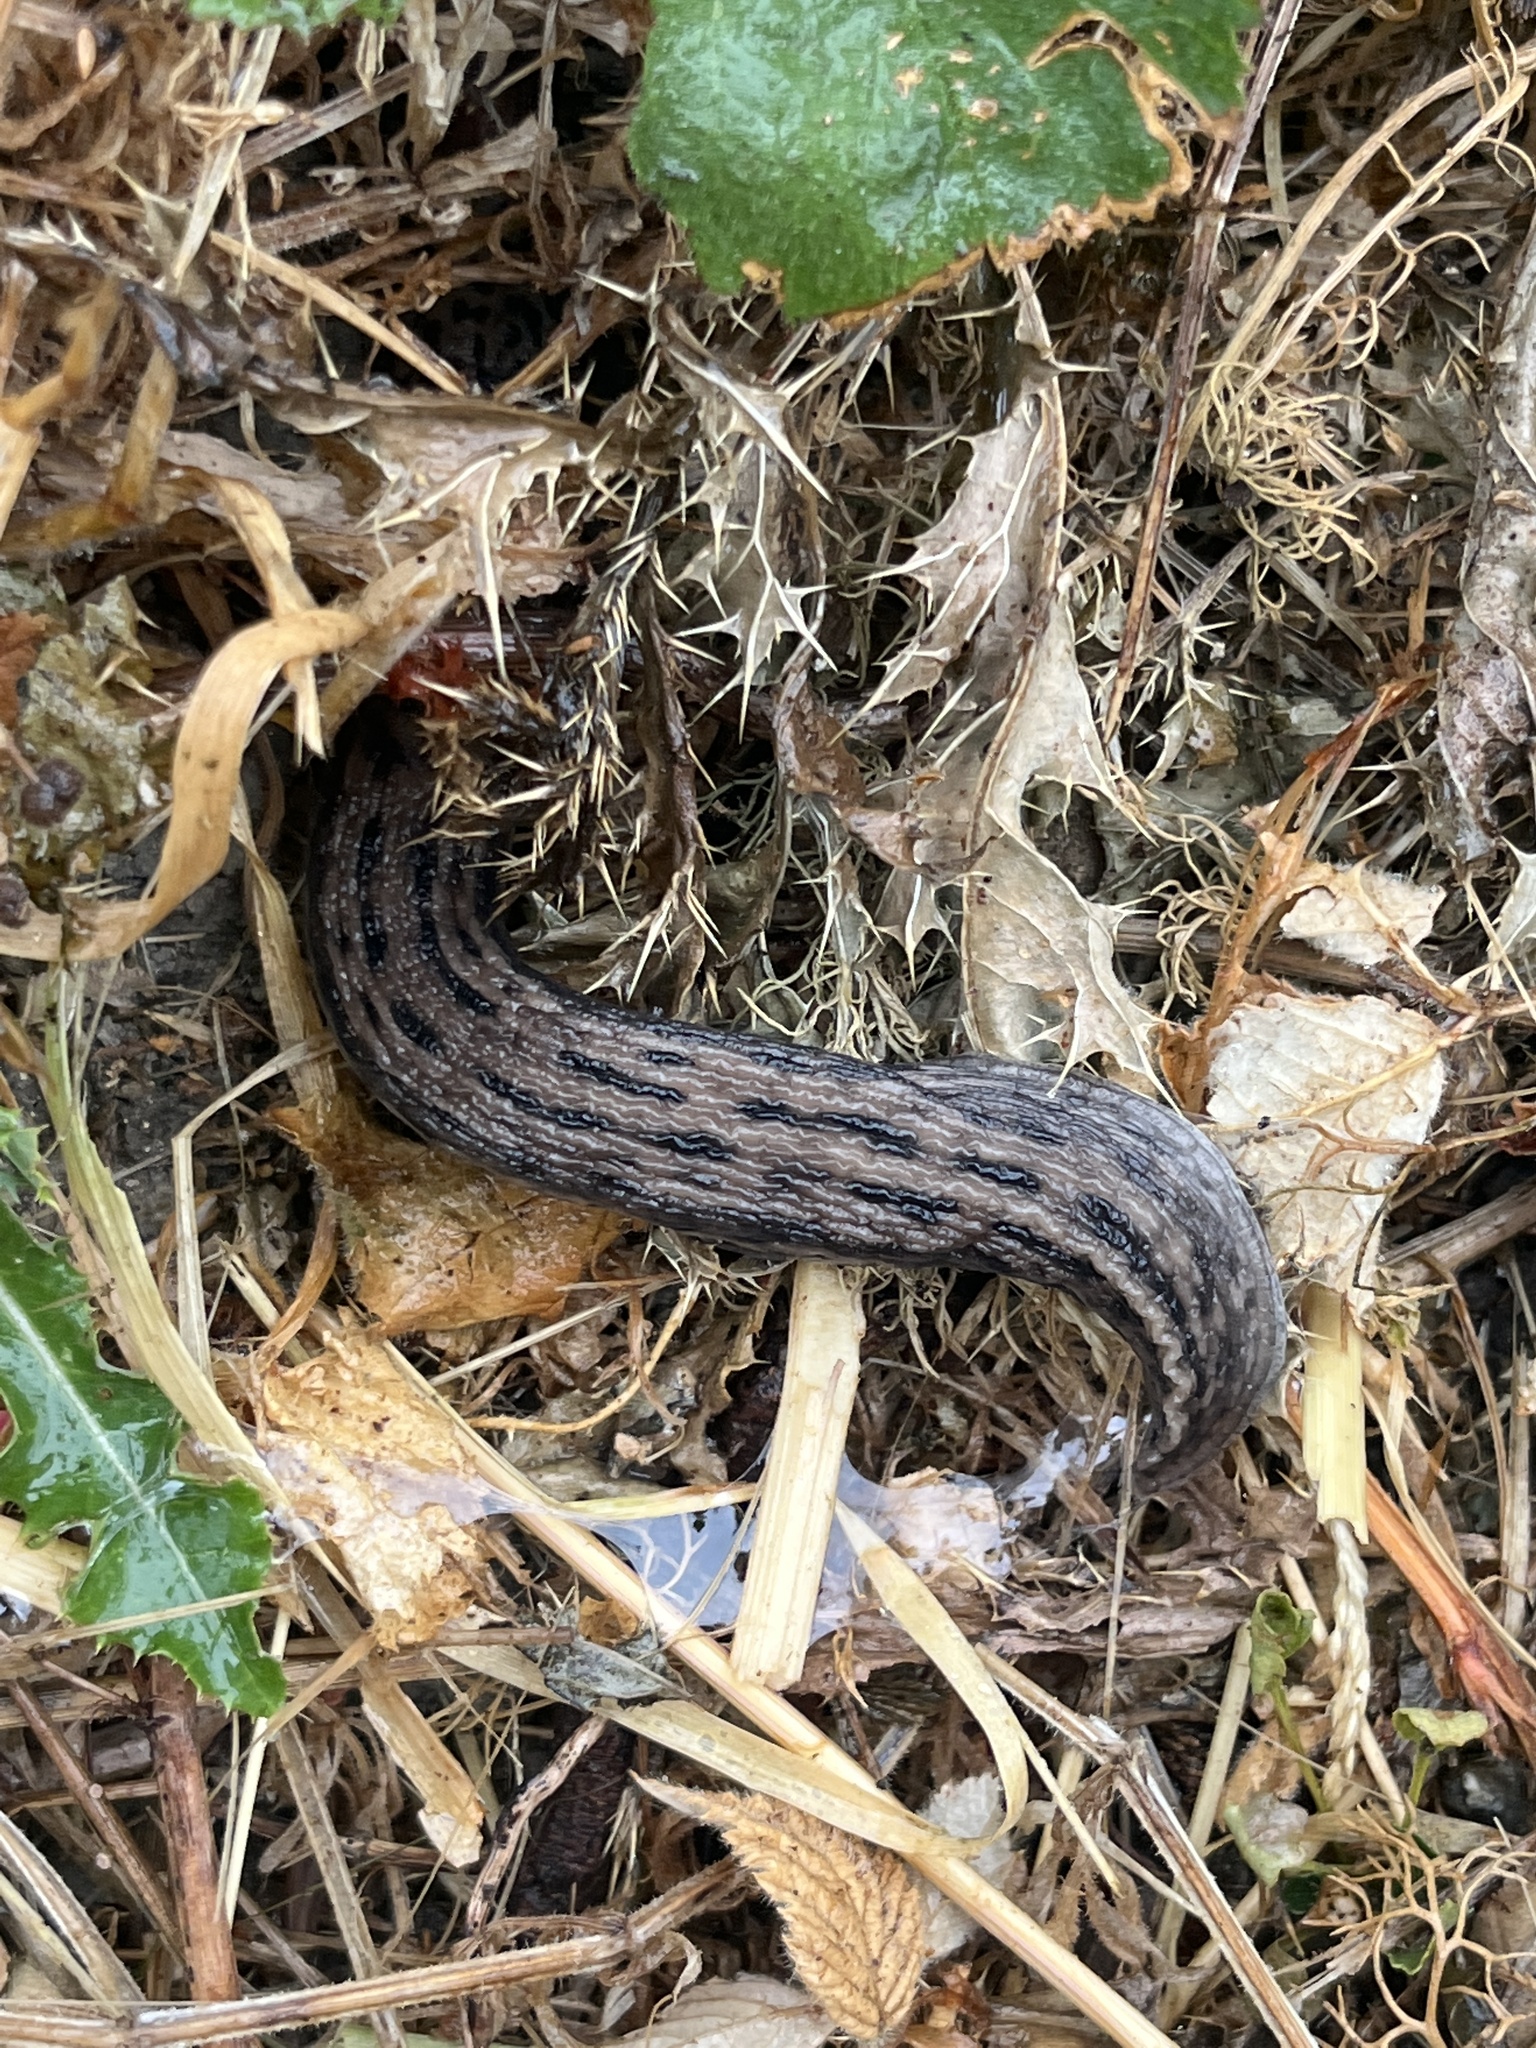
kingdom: Animalia
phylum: Mollusca
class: Gastropoda
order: Stylommatophora
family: Limacidae
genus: Limax
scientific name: Limax maximus
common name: Great grey slug
